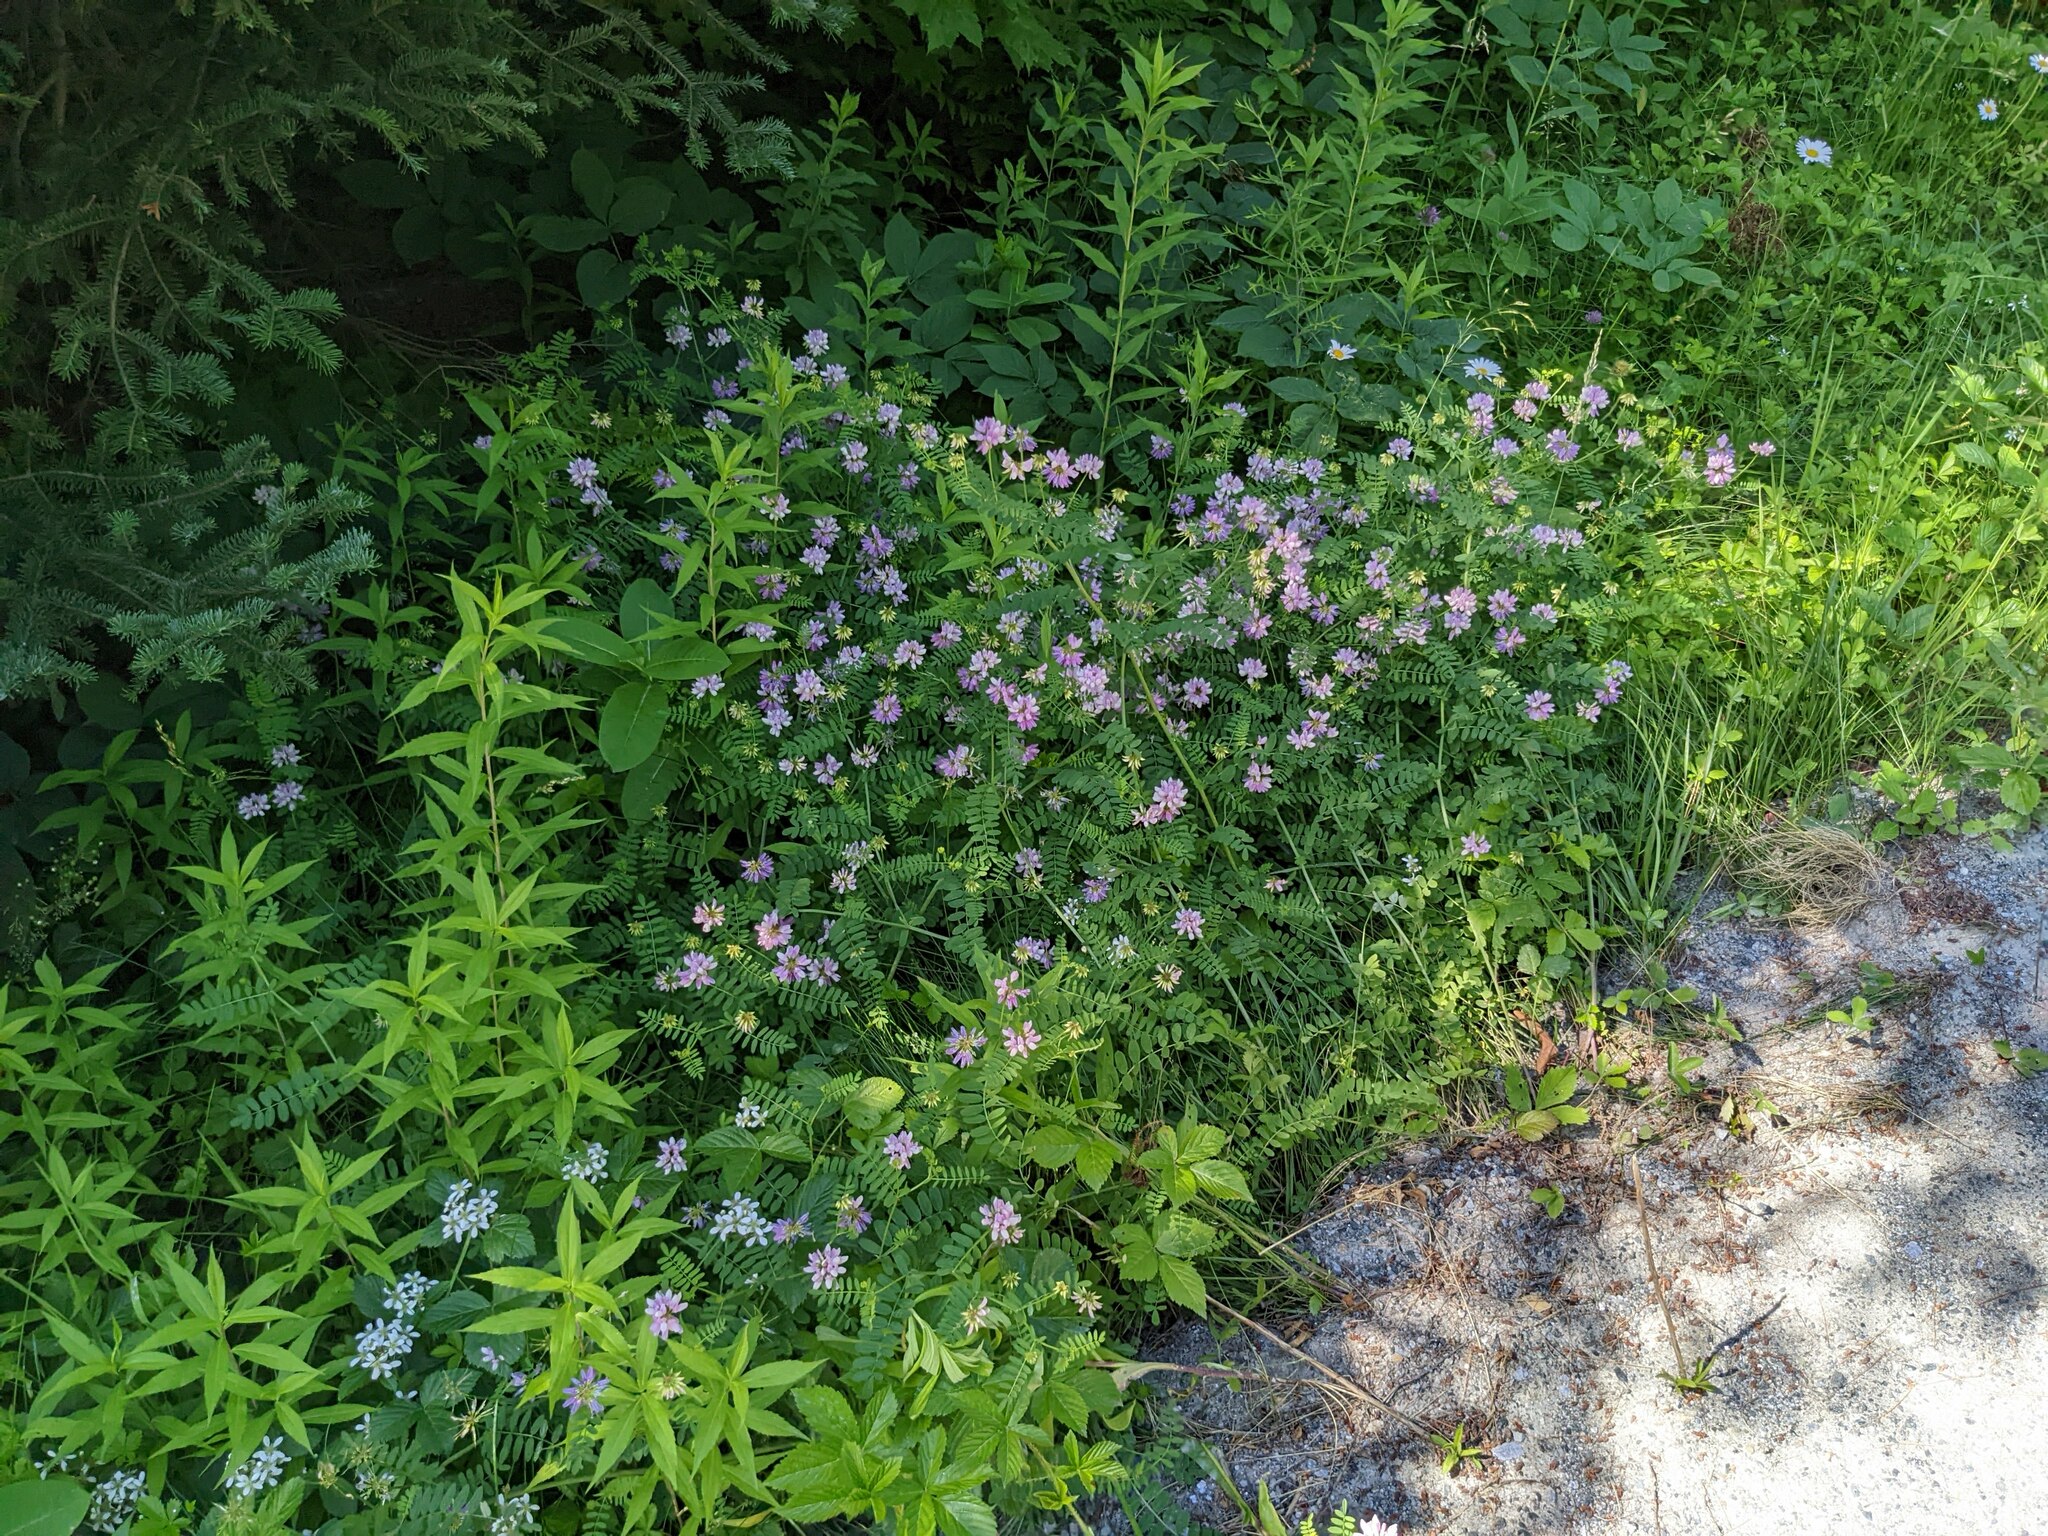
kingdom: Plantae
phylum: Tracheophyta
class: Magnoliopsida
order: Fabales
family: Fabaceae
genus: Coronilla
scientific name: Coronilla varia
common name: Crownvetch
